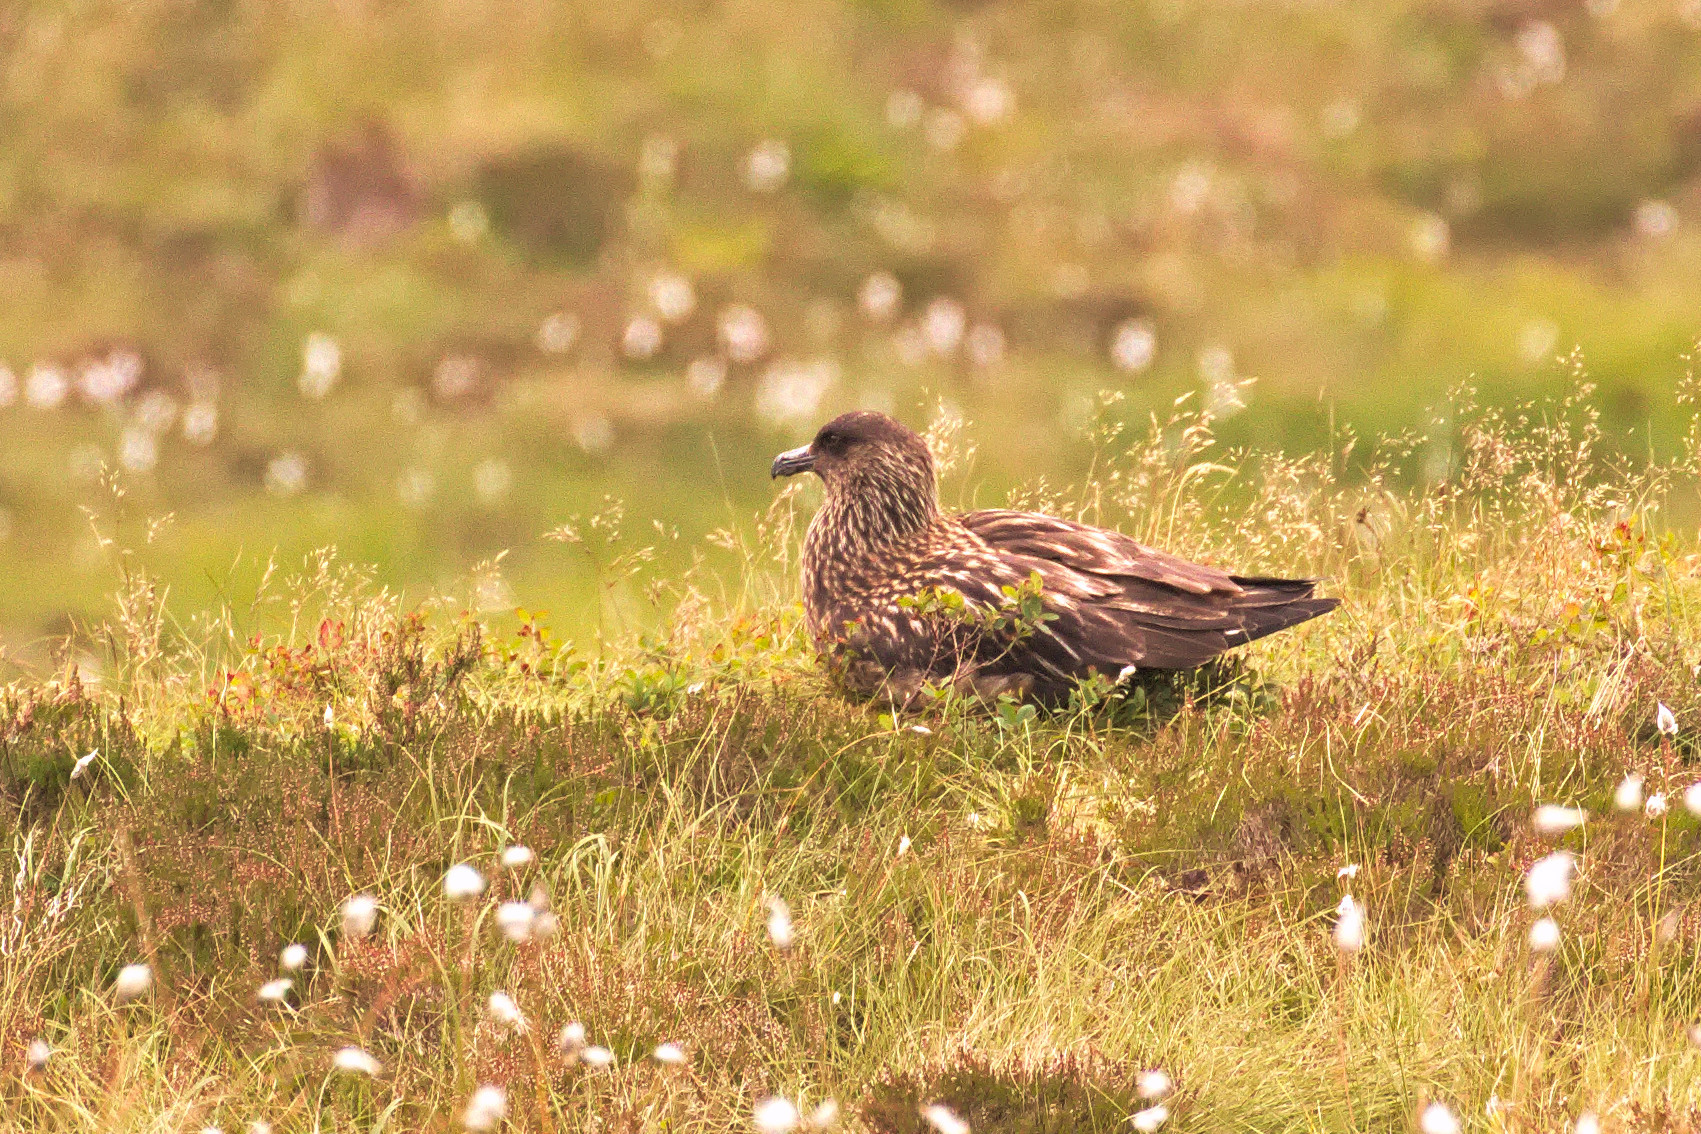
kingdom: Animalia
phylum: Chordata
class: Aves
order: Charadriiformes
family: Stercorariidae
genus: Stercorarius
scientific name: Stercorarius skua
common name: Great skua
